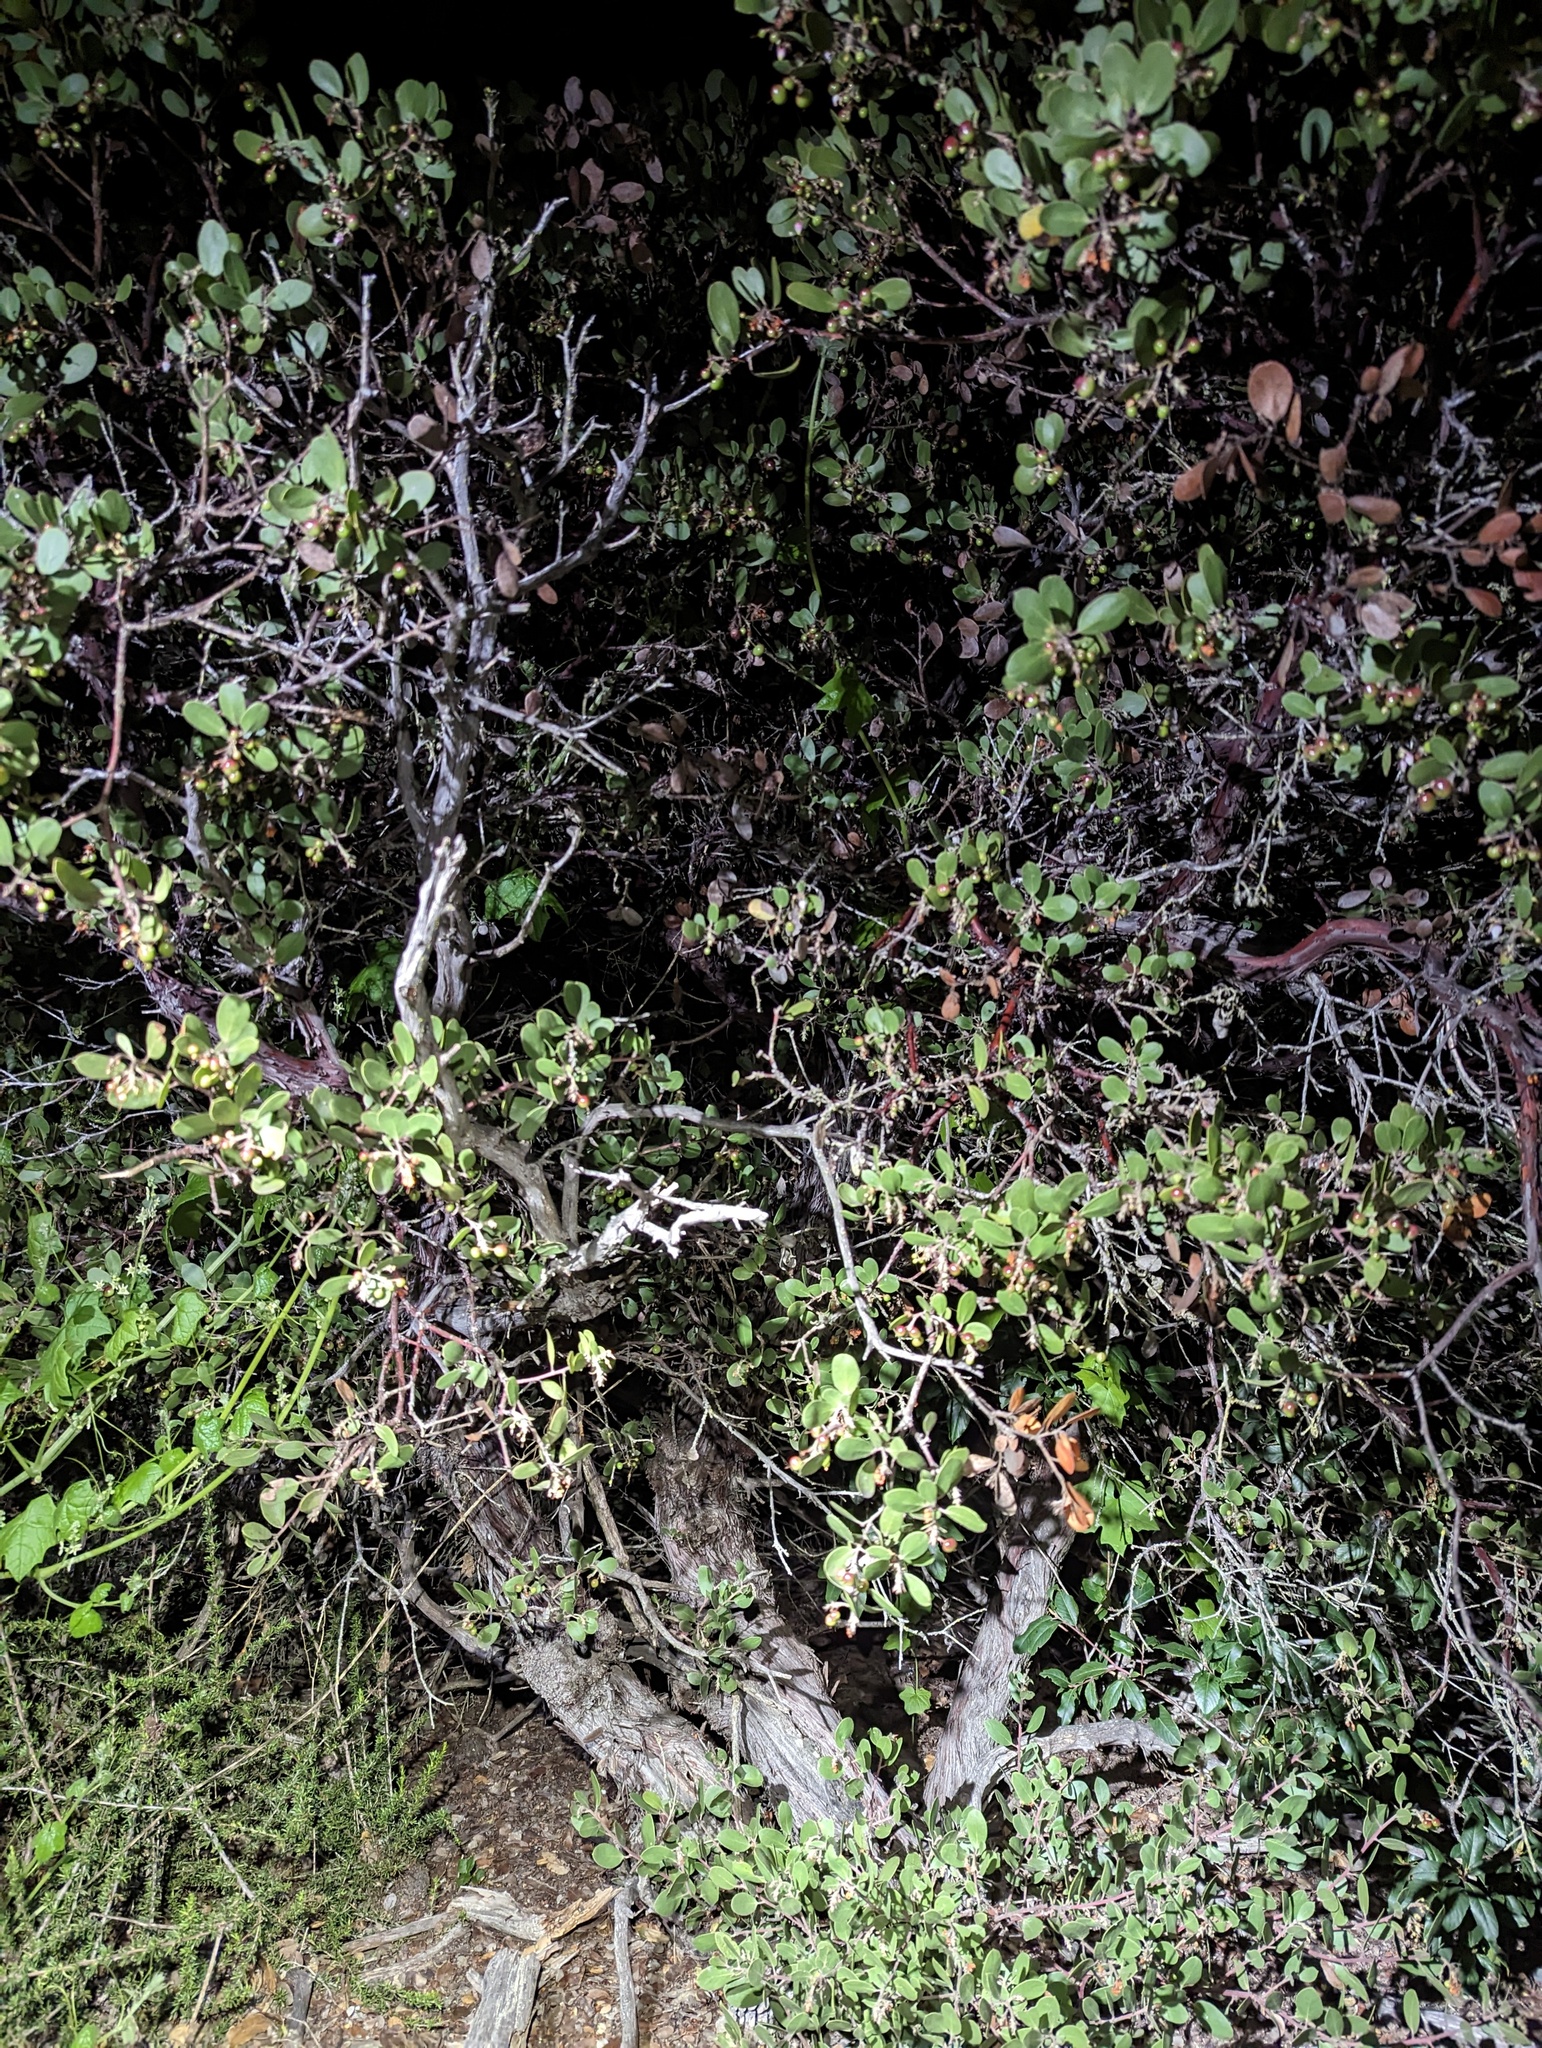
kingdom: Plantae
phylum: Tracheophyta
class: Magnoliopsida
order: Ericales
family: Ericaceae
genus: Arctostaphylos
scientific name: Arctostaphylos rudis
